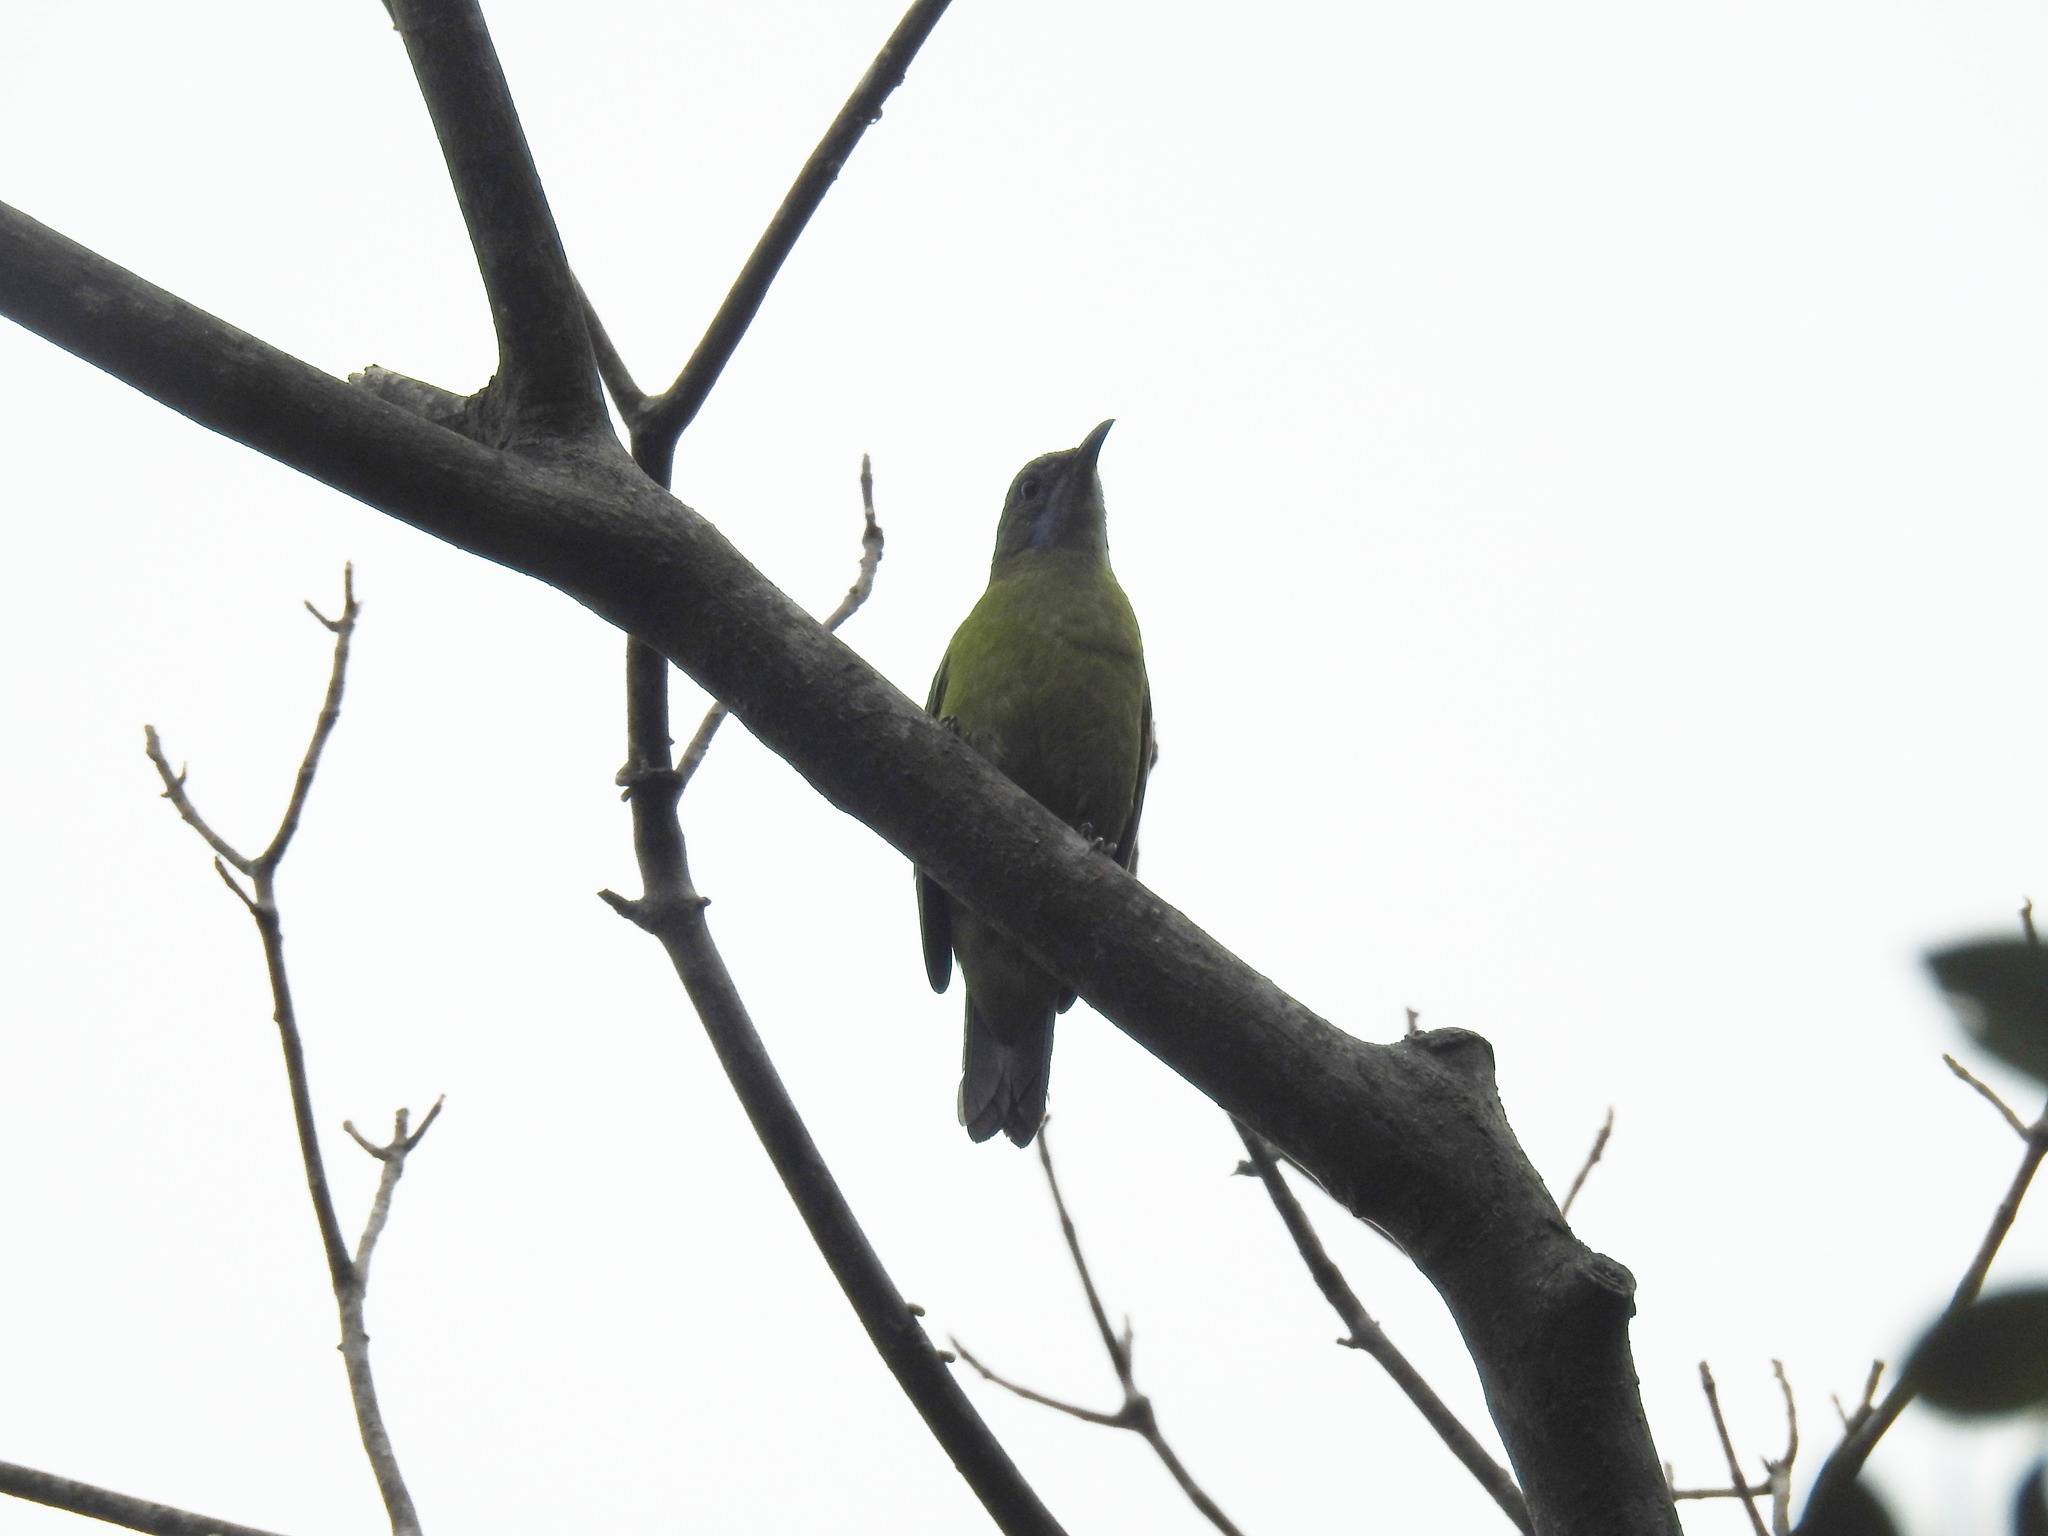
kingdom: Animalia
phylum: Chordata
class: Aves
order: Passeriformes
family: Chloropseidae
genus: Chloropsis
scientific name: Chloropsis hardwickii
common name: Orange-bellied leafbird
